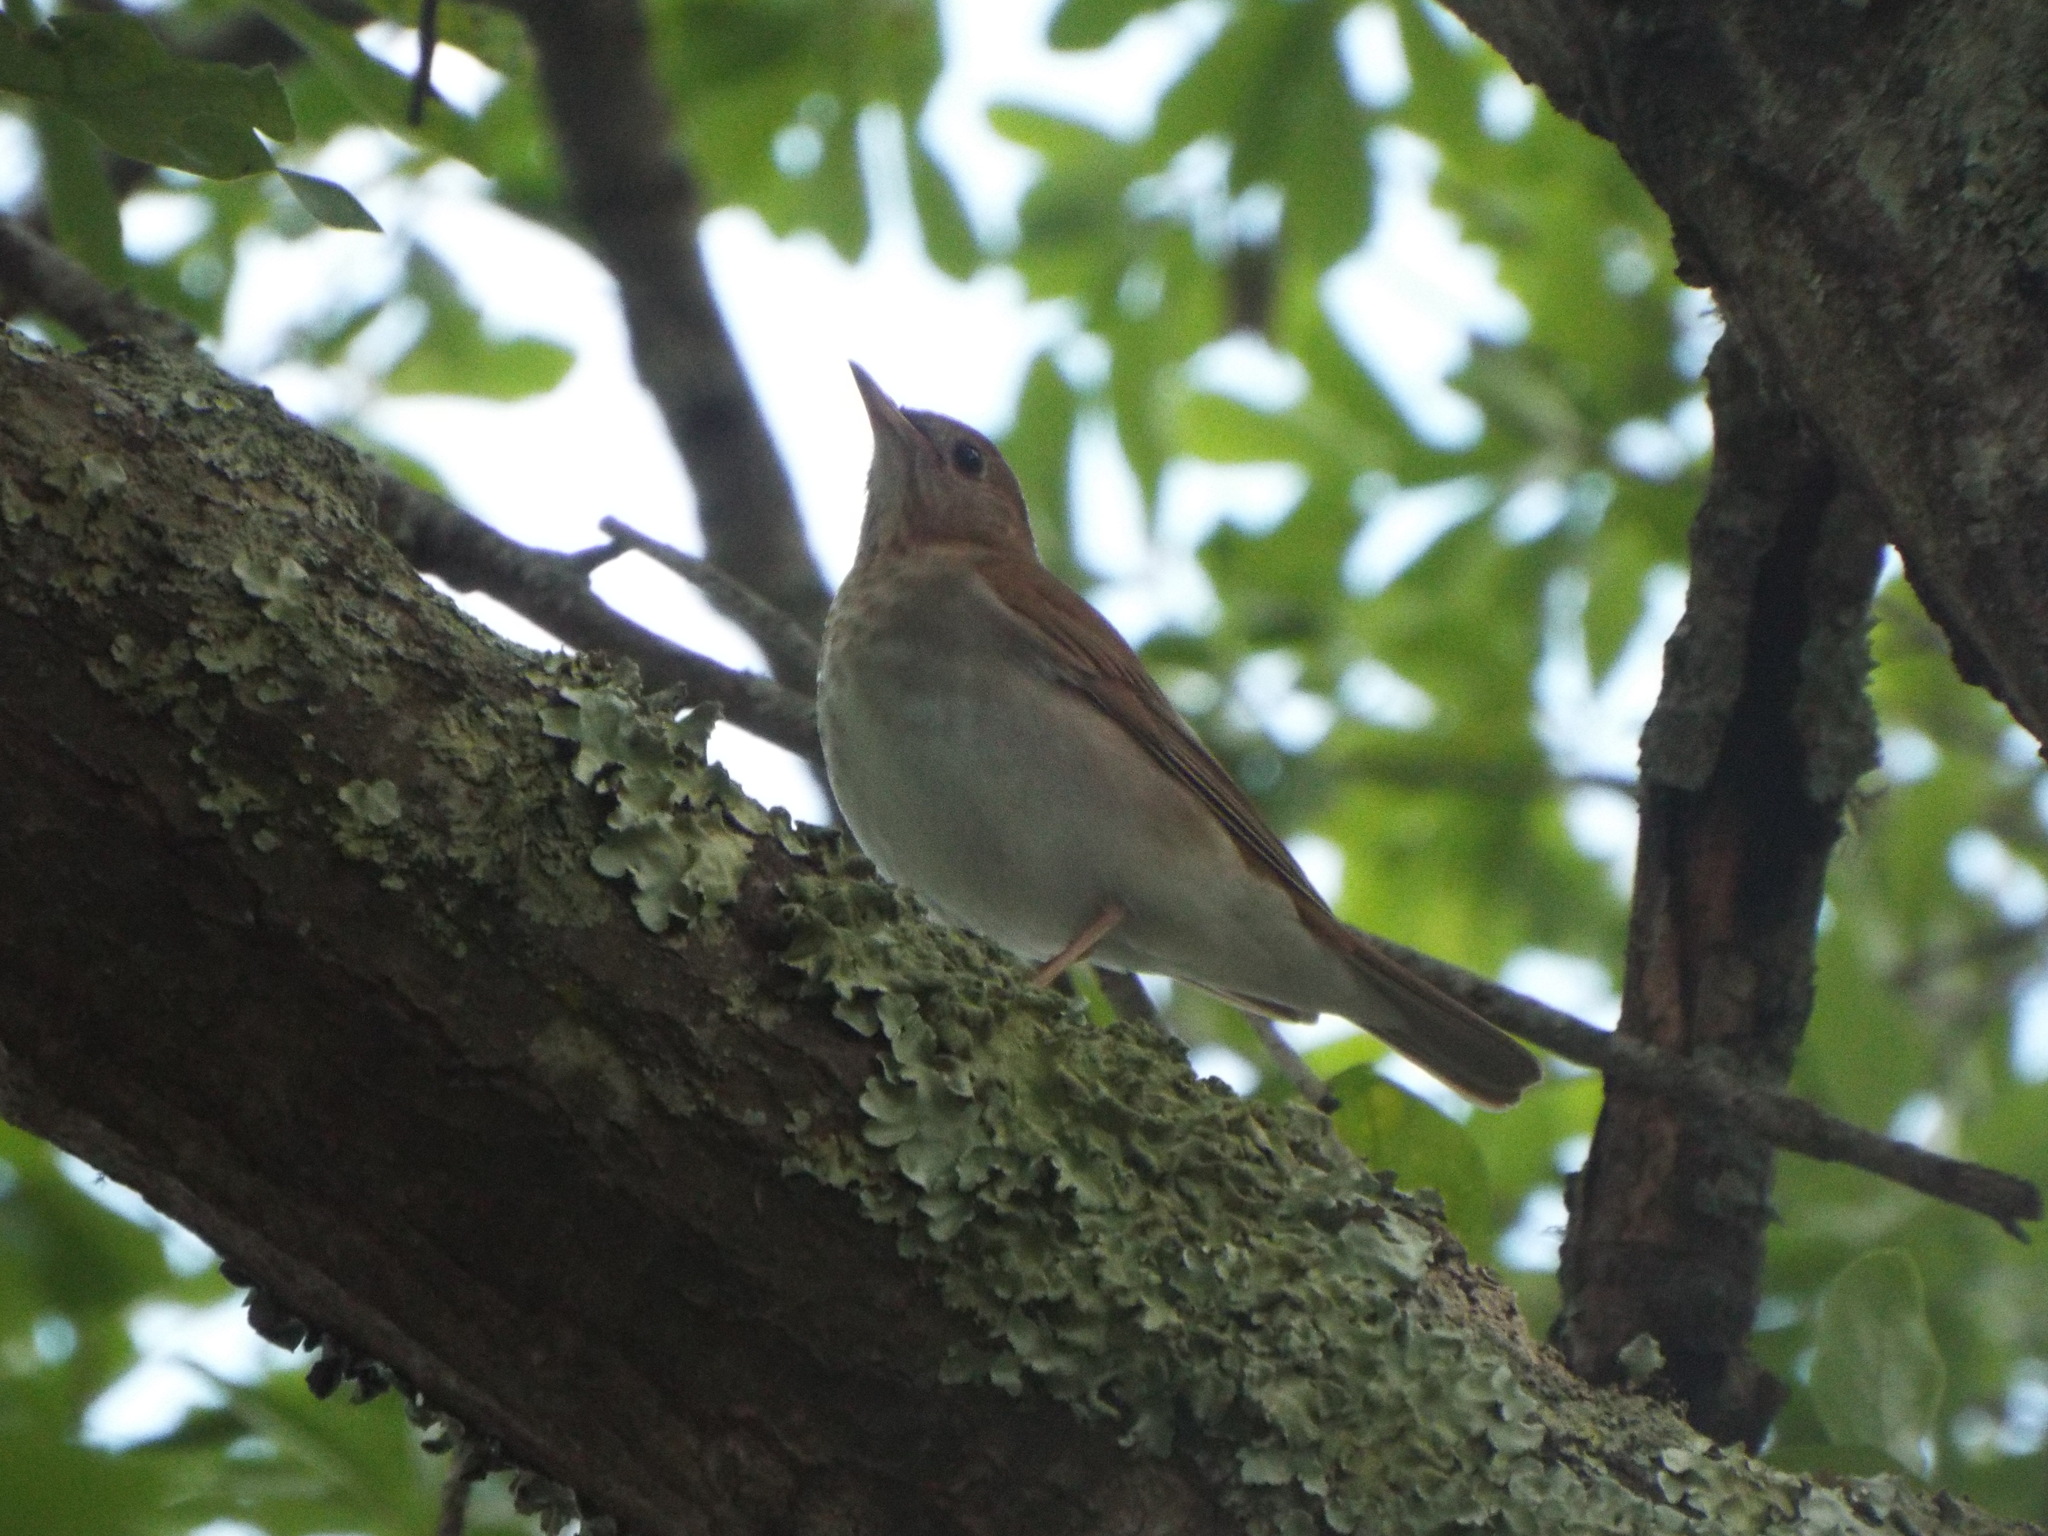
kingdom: Animalia
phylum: Chordata
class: Aves
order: Passeriformes
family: Turdidae
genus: Catharus
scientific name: Catharus fuscescens
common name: Veery
